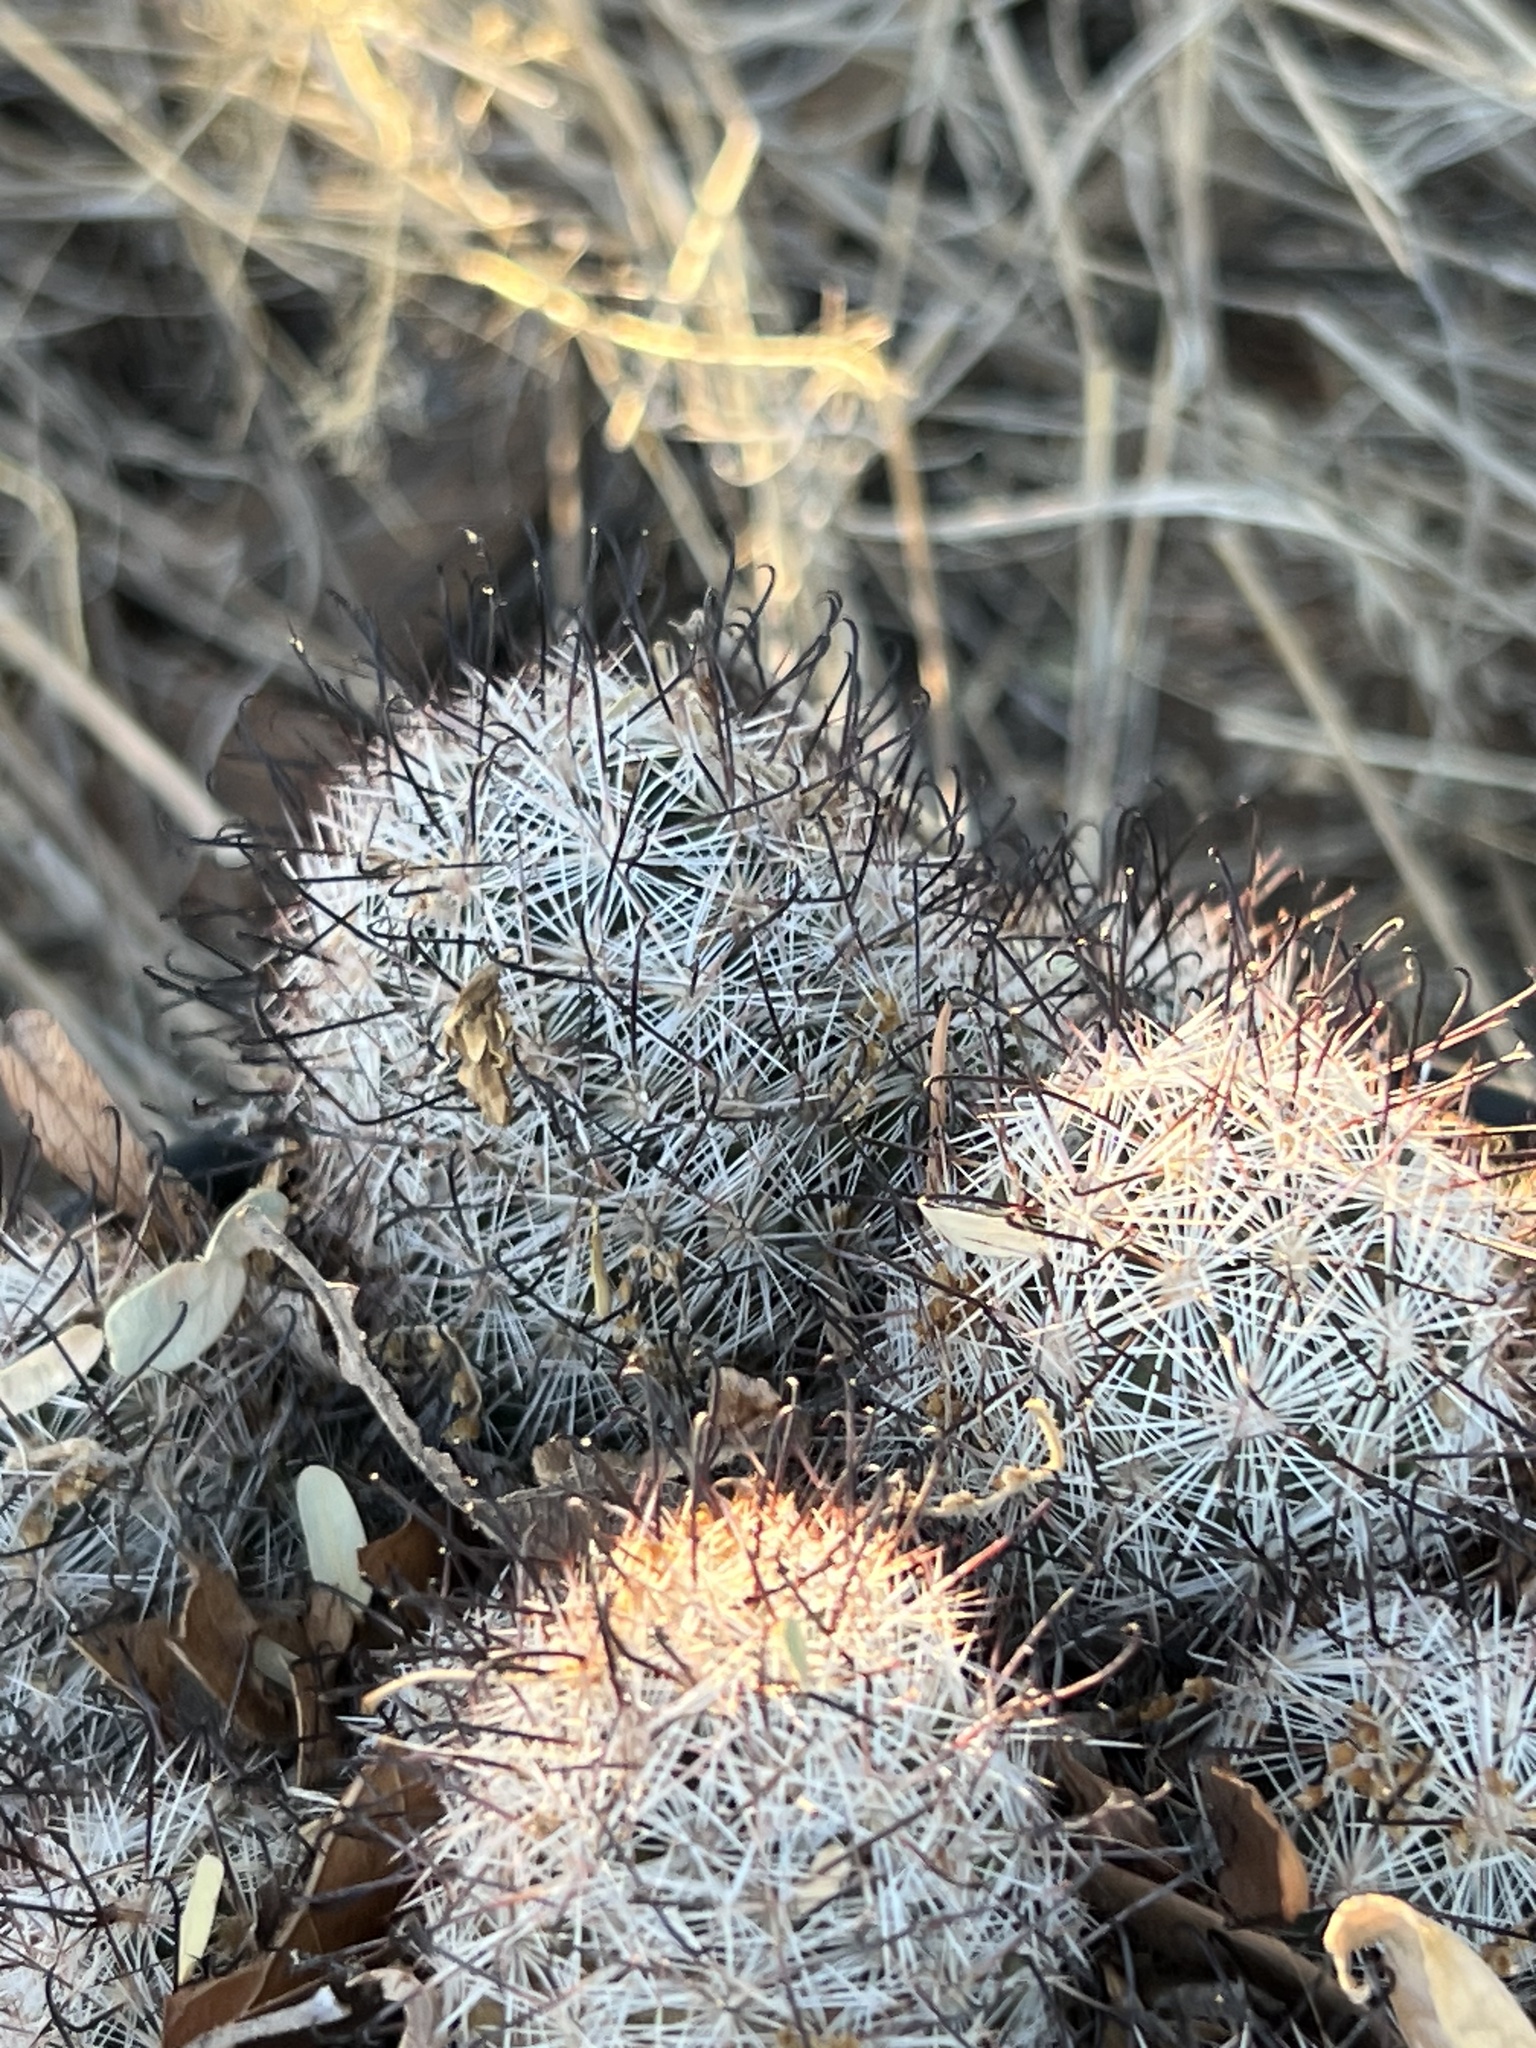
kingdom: Plantae
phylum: Tracheophyta
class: Magnoliopsida
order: Caryophyllales
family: Cactaceae
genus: Cochemiea
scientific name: Cochemiea grahamii
